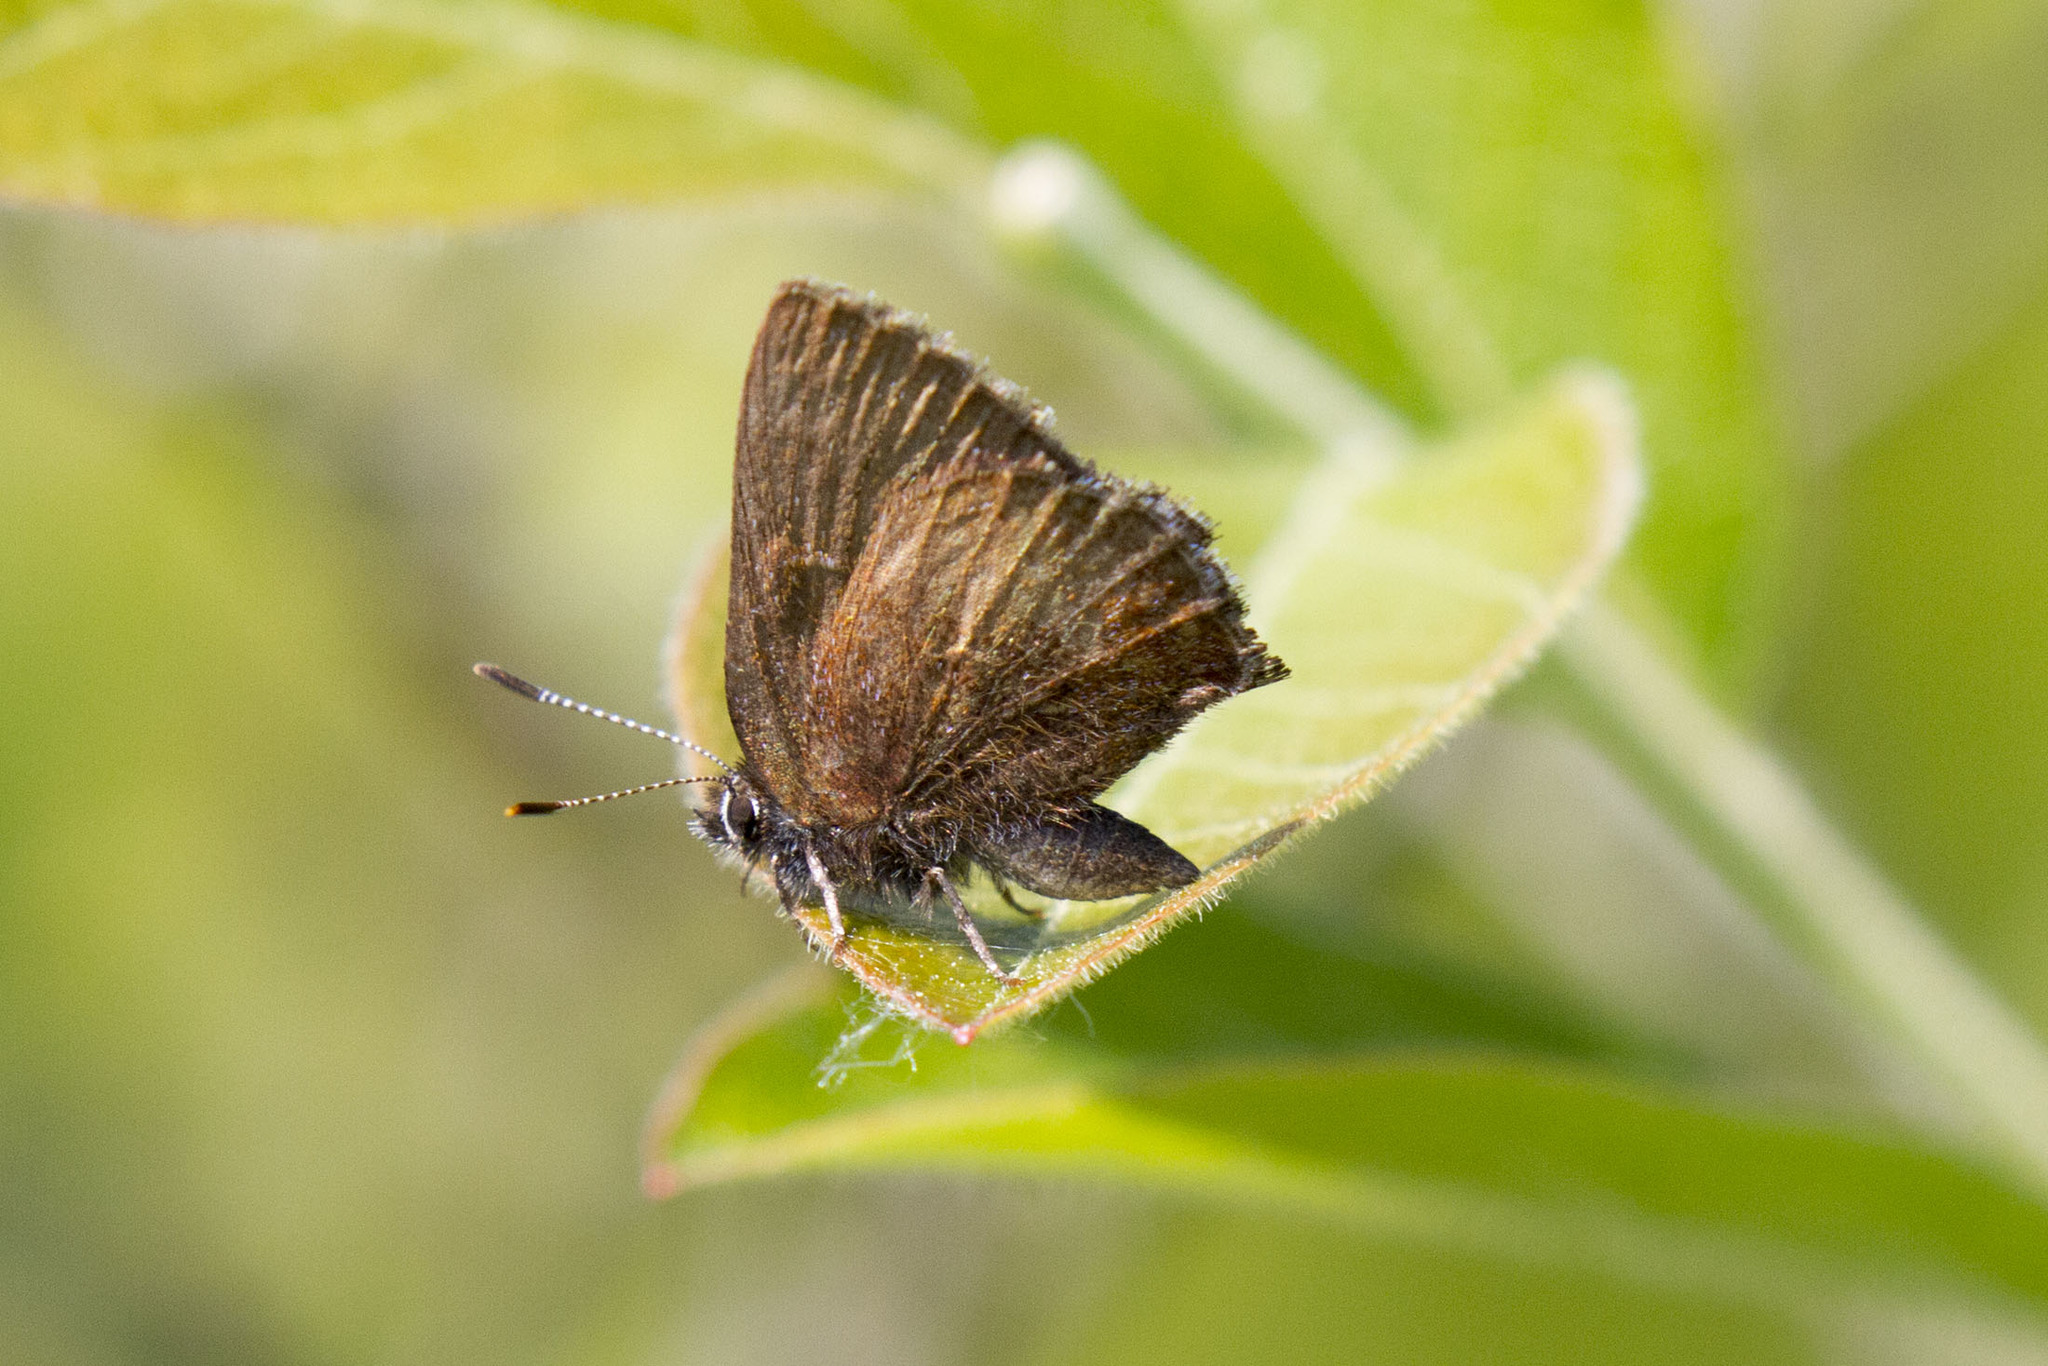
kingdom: Animalia
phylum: Arthropoda
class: Insecta
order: Lepidoptera
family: Lycaenidae
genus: Incisalia
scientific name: Incisalia irioides
